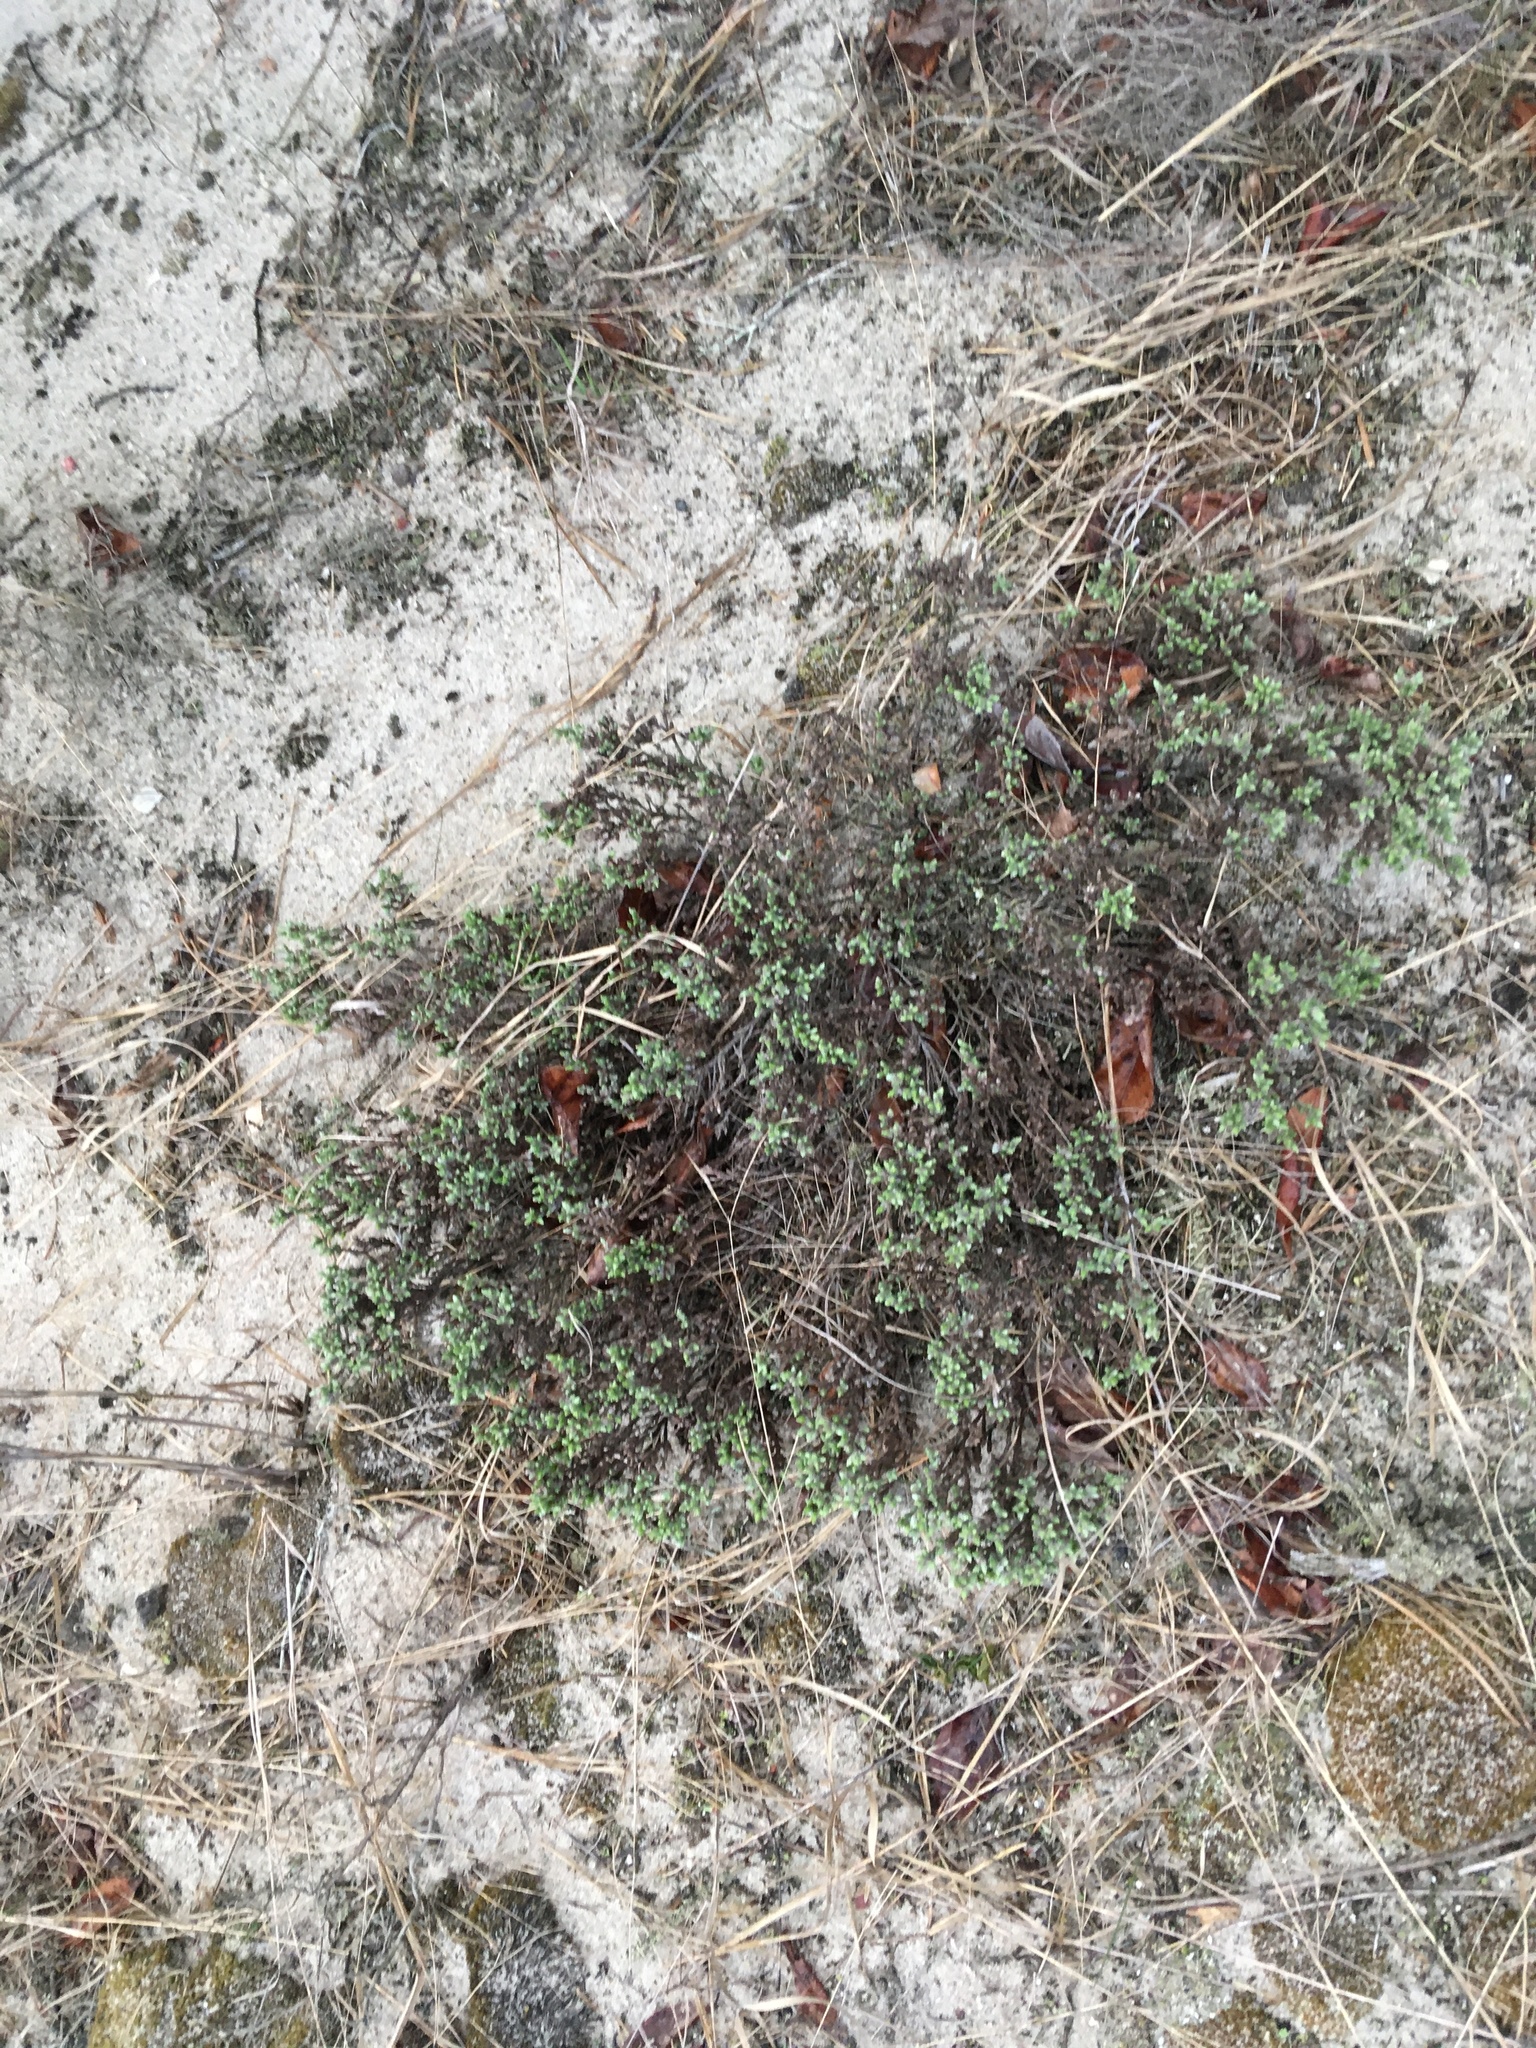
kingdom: Plantae
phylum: Tracheophyta
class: Magnoliopsida
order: Malvales
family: Cistaceae
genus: Hudsonia
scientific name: Hudsonia tomentosa
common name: Beach-heath
